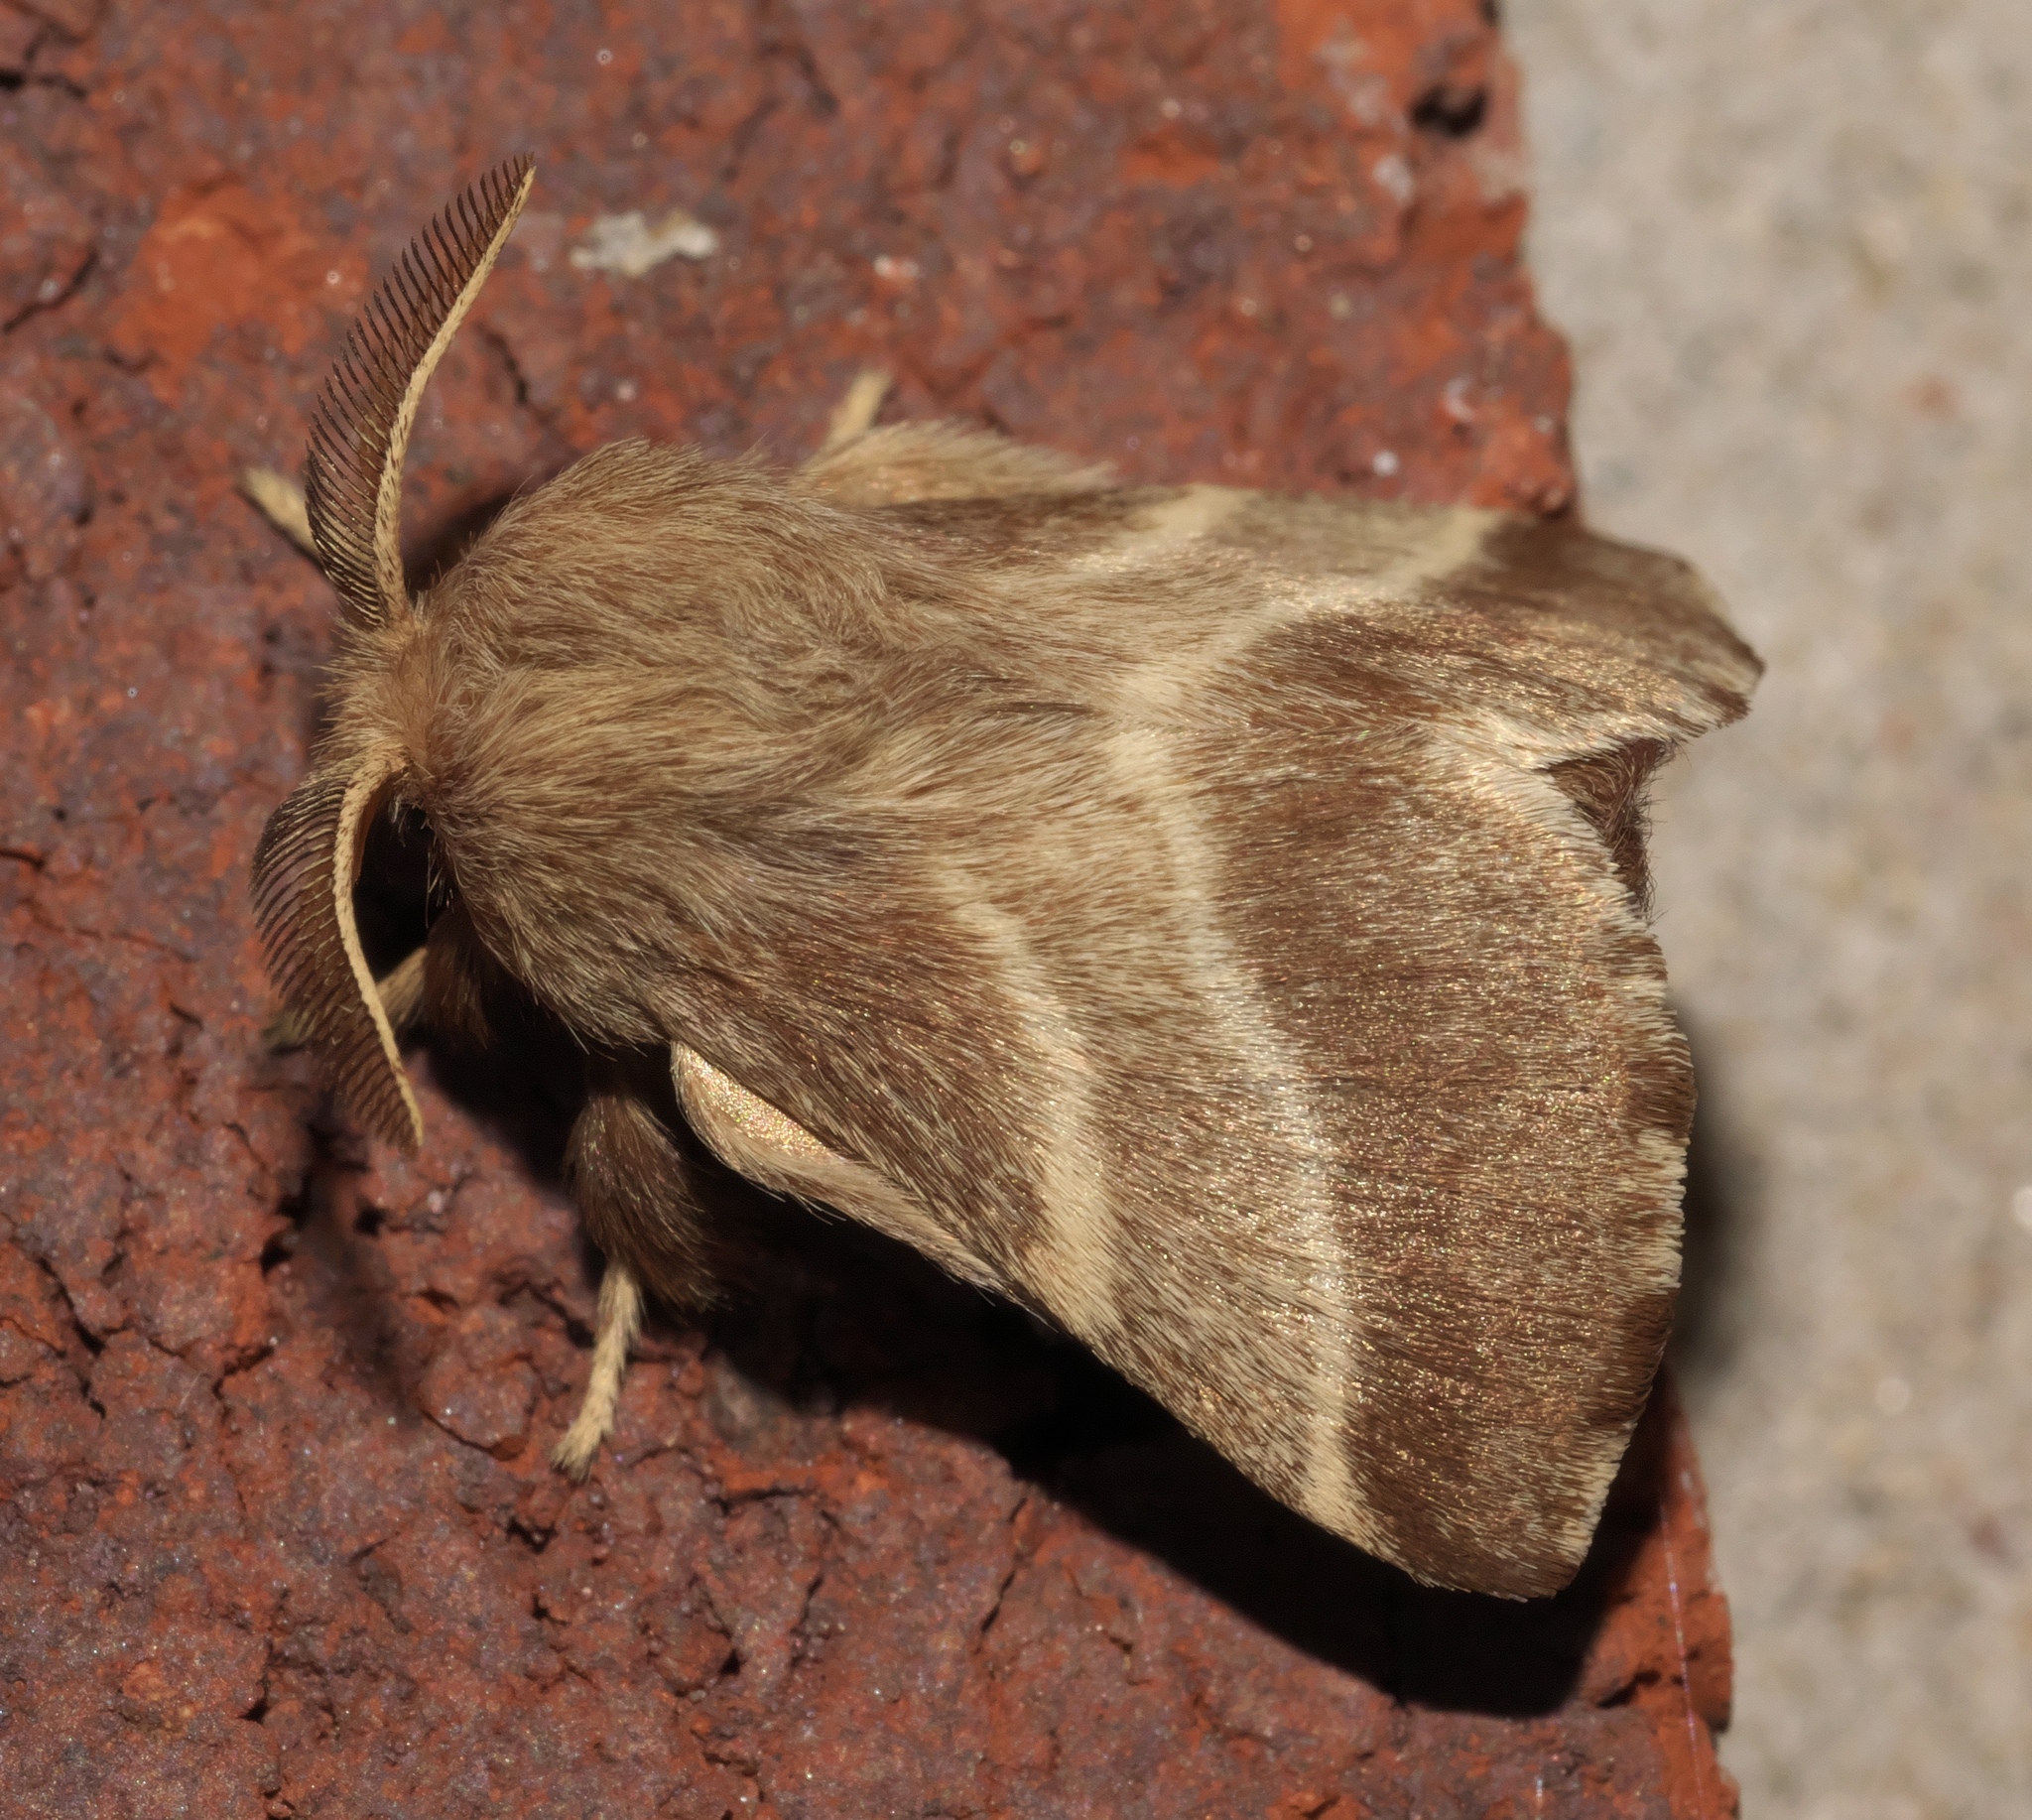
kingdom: Animalia
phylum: Arthropoda
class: Insecta
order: Lepidoptera
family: Lasiocampidae
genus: Malacosoma
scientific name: Malacosoma americana
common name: Eastern tent caterpillar moth
